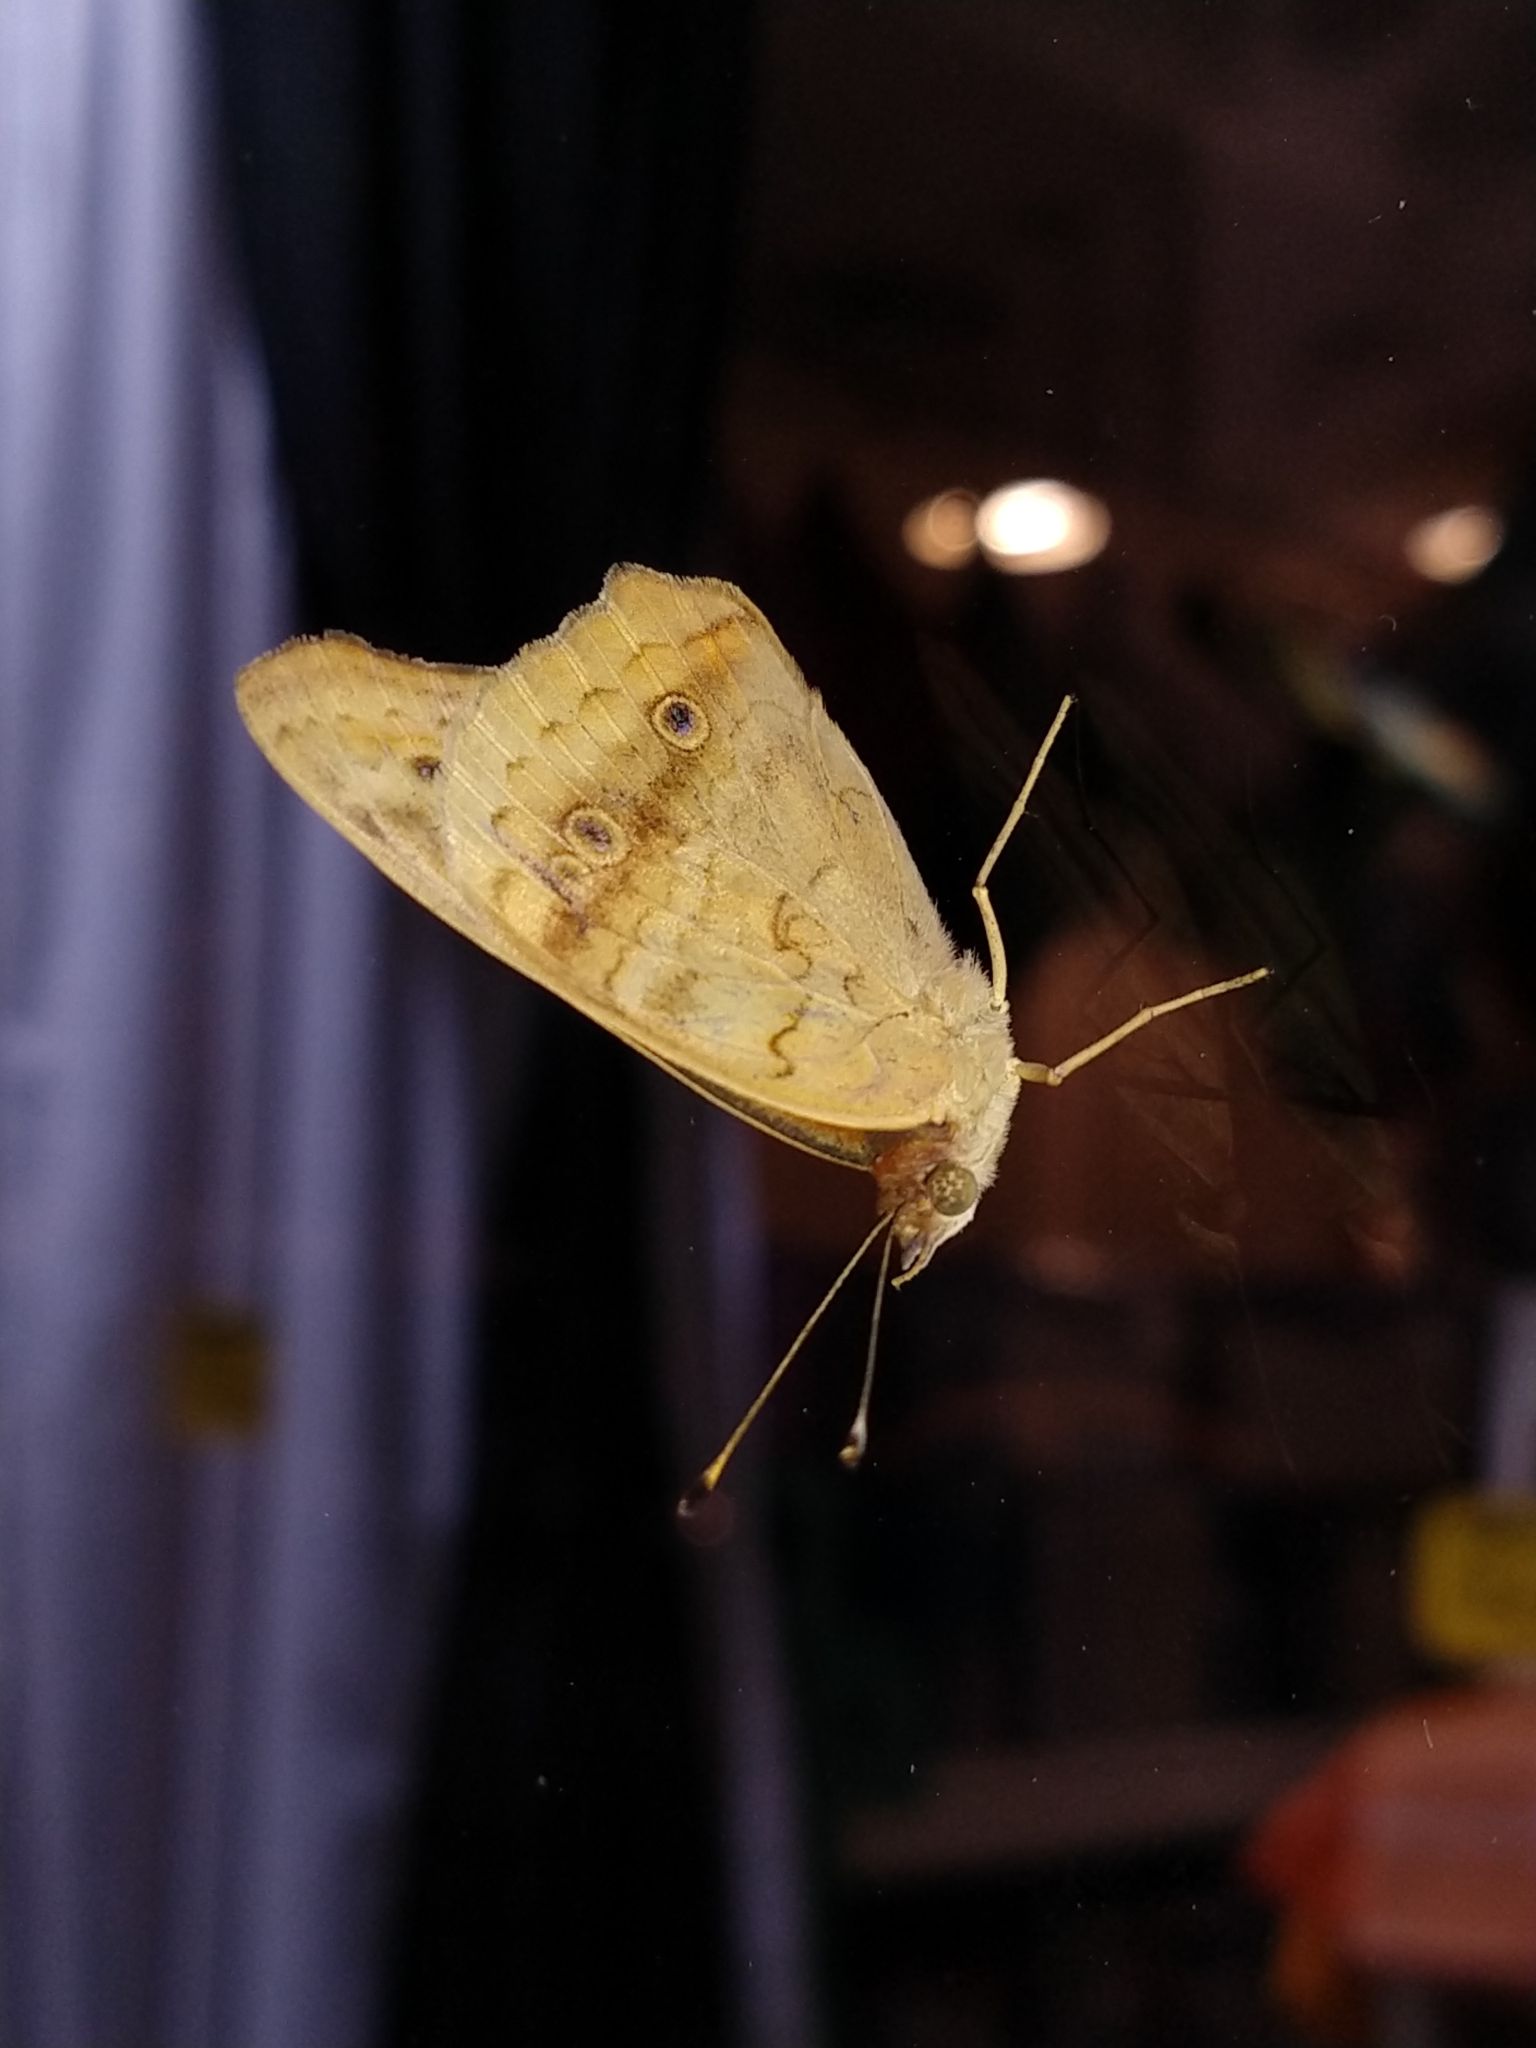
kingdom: Animalia
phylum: Arthropoda
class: Insecta
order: Lepidoptera
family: Nymphalidae
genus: Junonia
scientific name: Junonia lavinia
